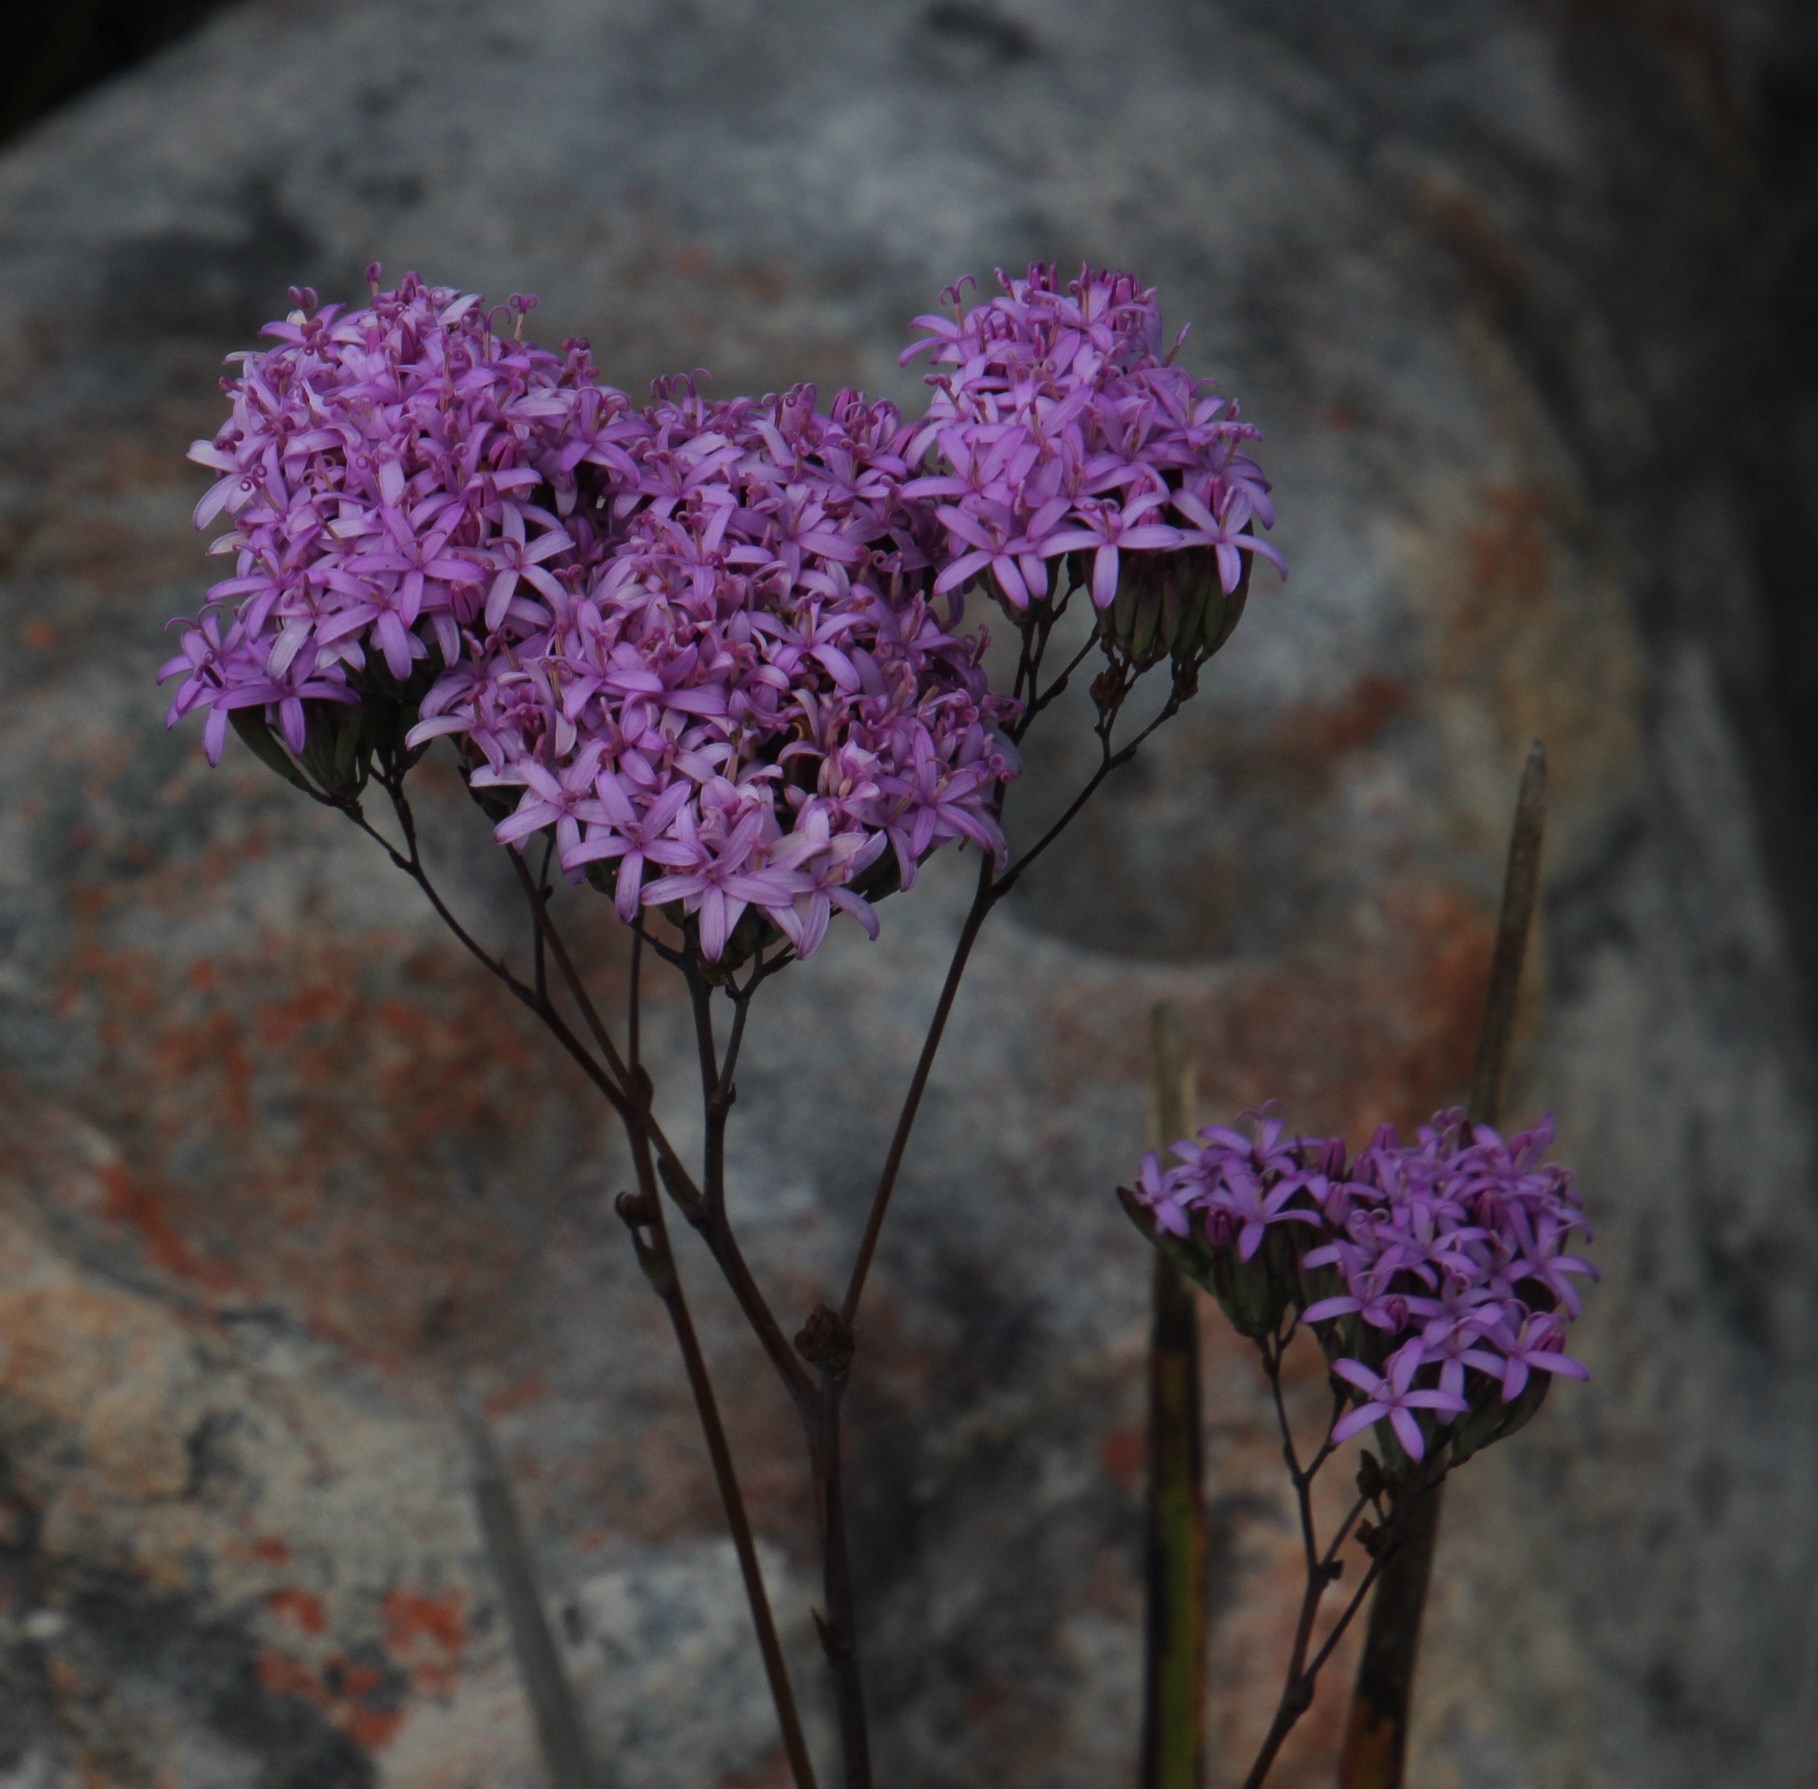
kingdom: Plantae
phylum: Tracheophyta
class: Magnoliopsida
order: Asterales
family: Asteraceae
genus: Corymbium
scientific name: Corymbium glabrum
